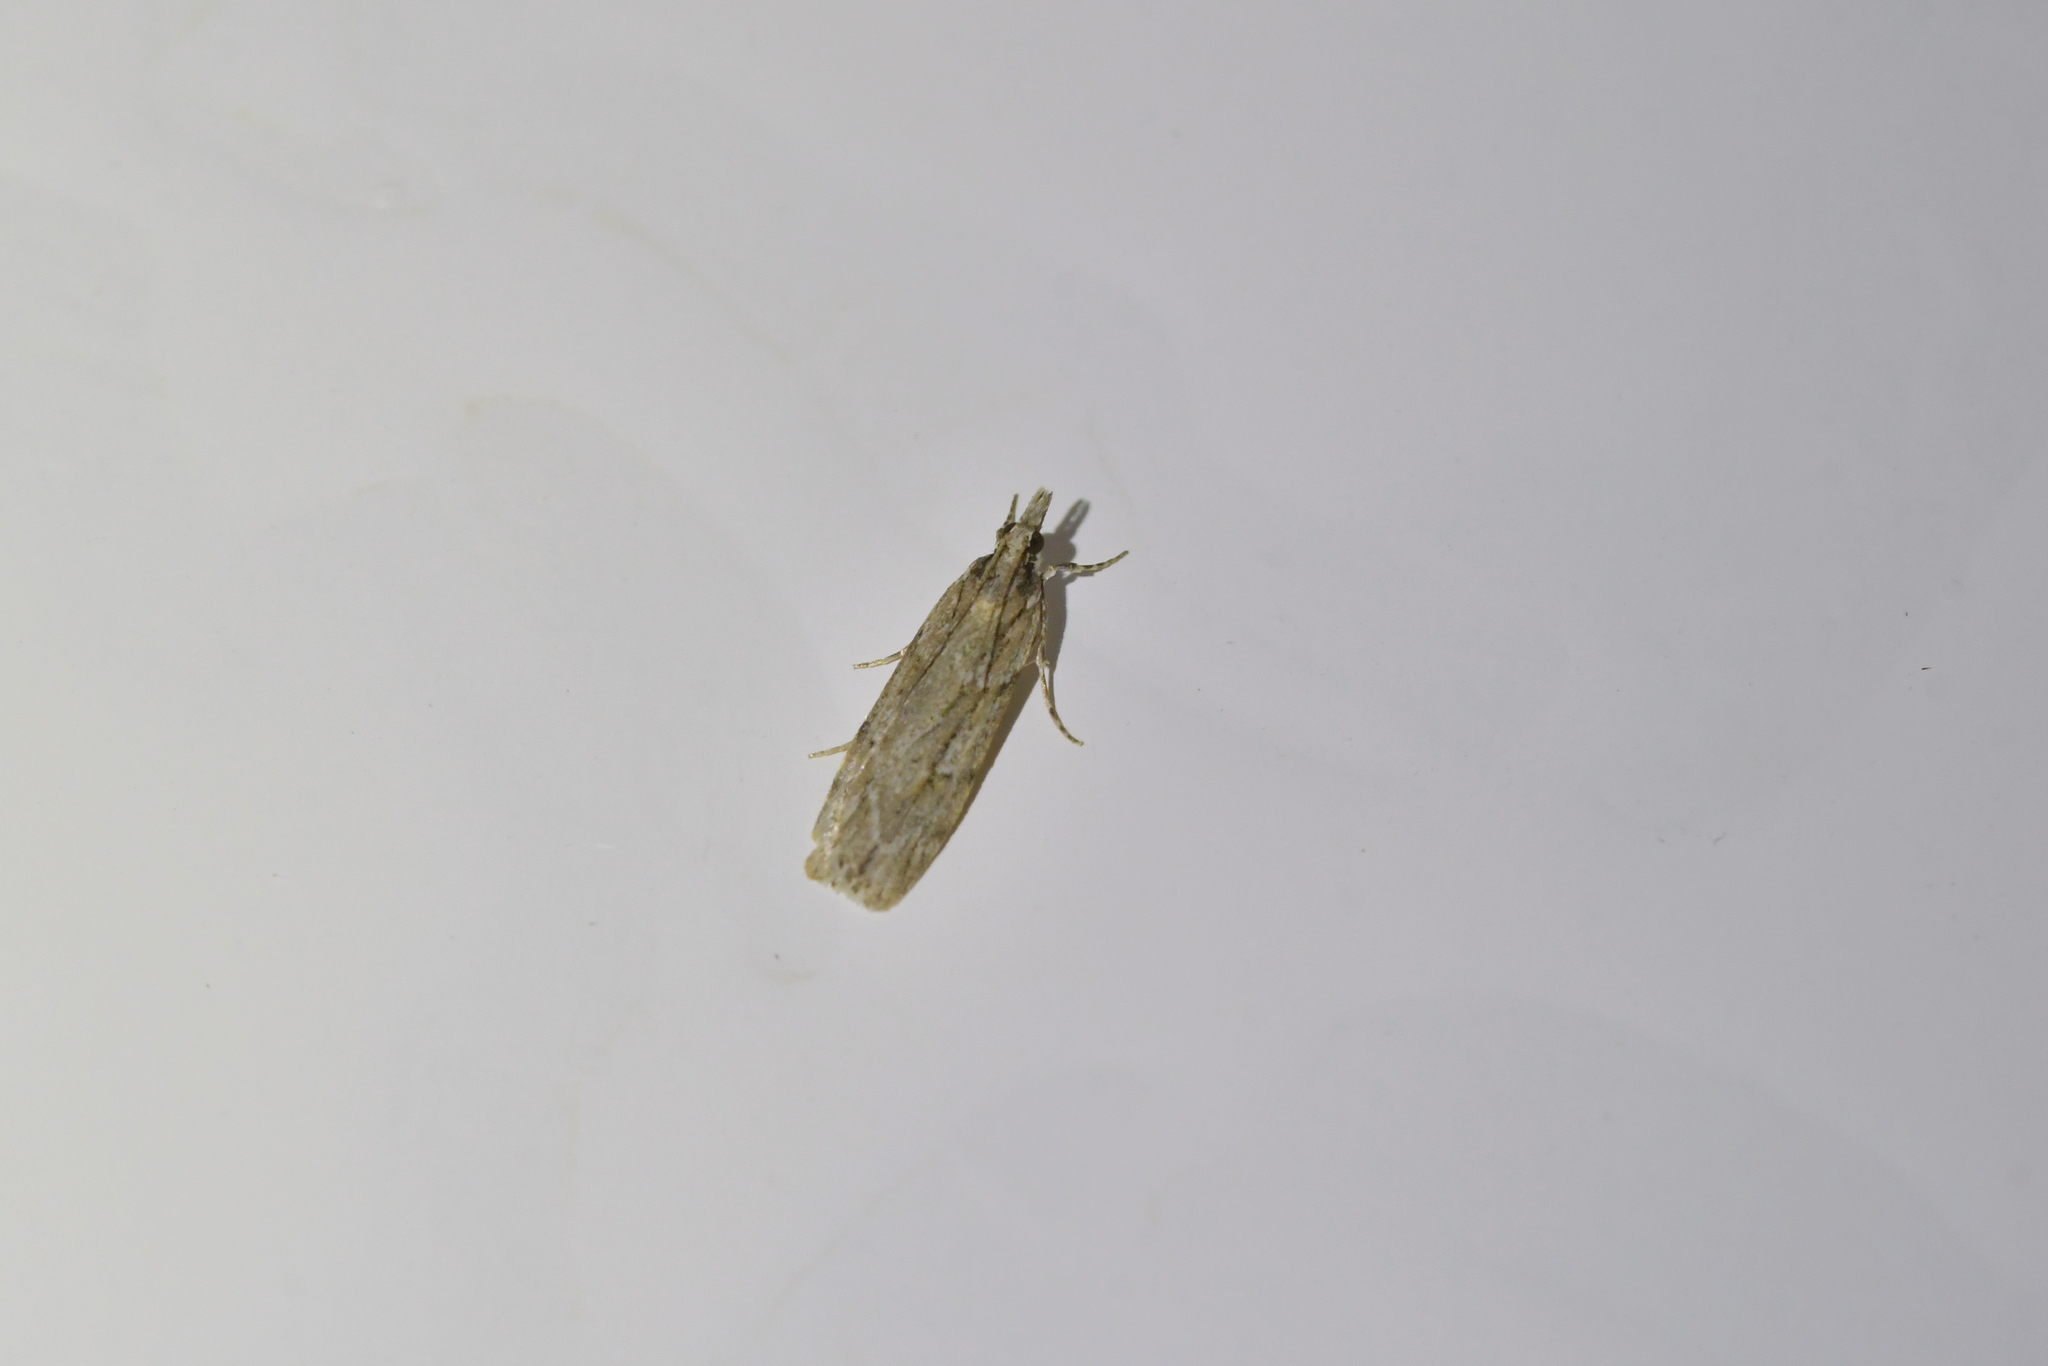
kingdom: Animalia
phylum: Arthropoda
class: Insecta
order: Lepidoptera
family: Crambidae
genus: Scoparia
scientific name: Scoparia chalicodes
